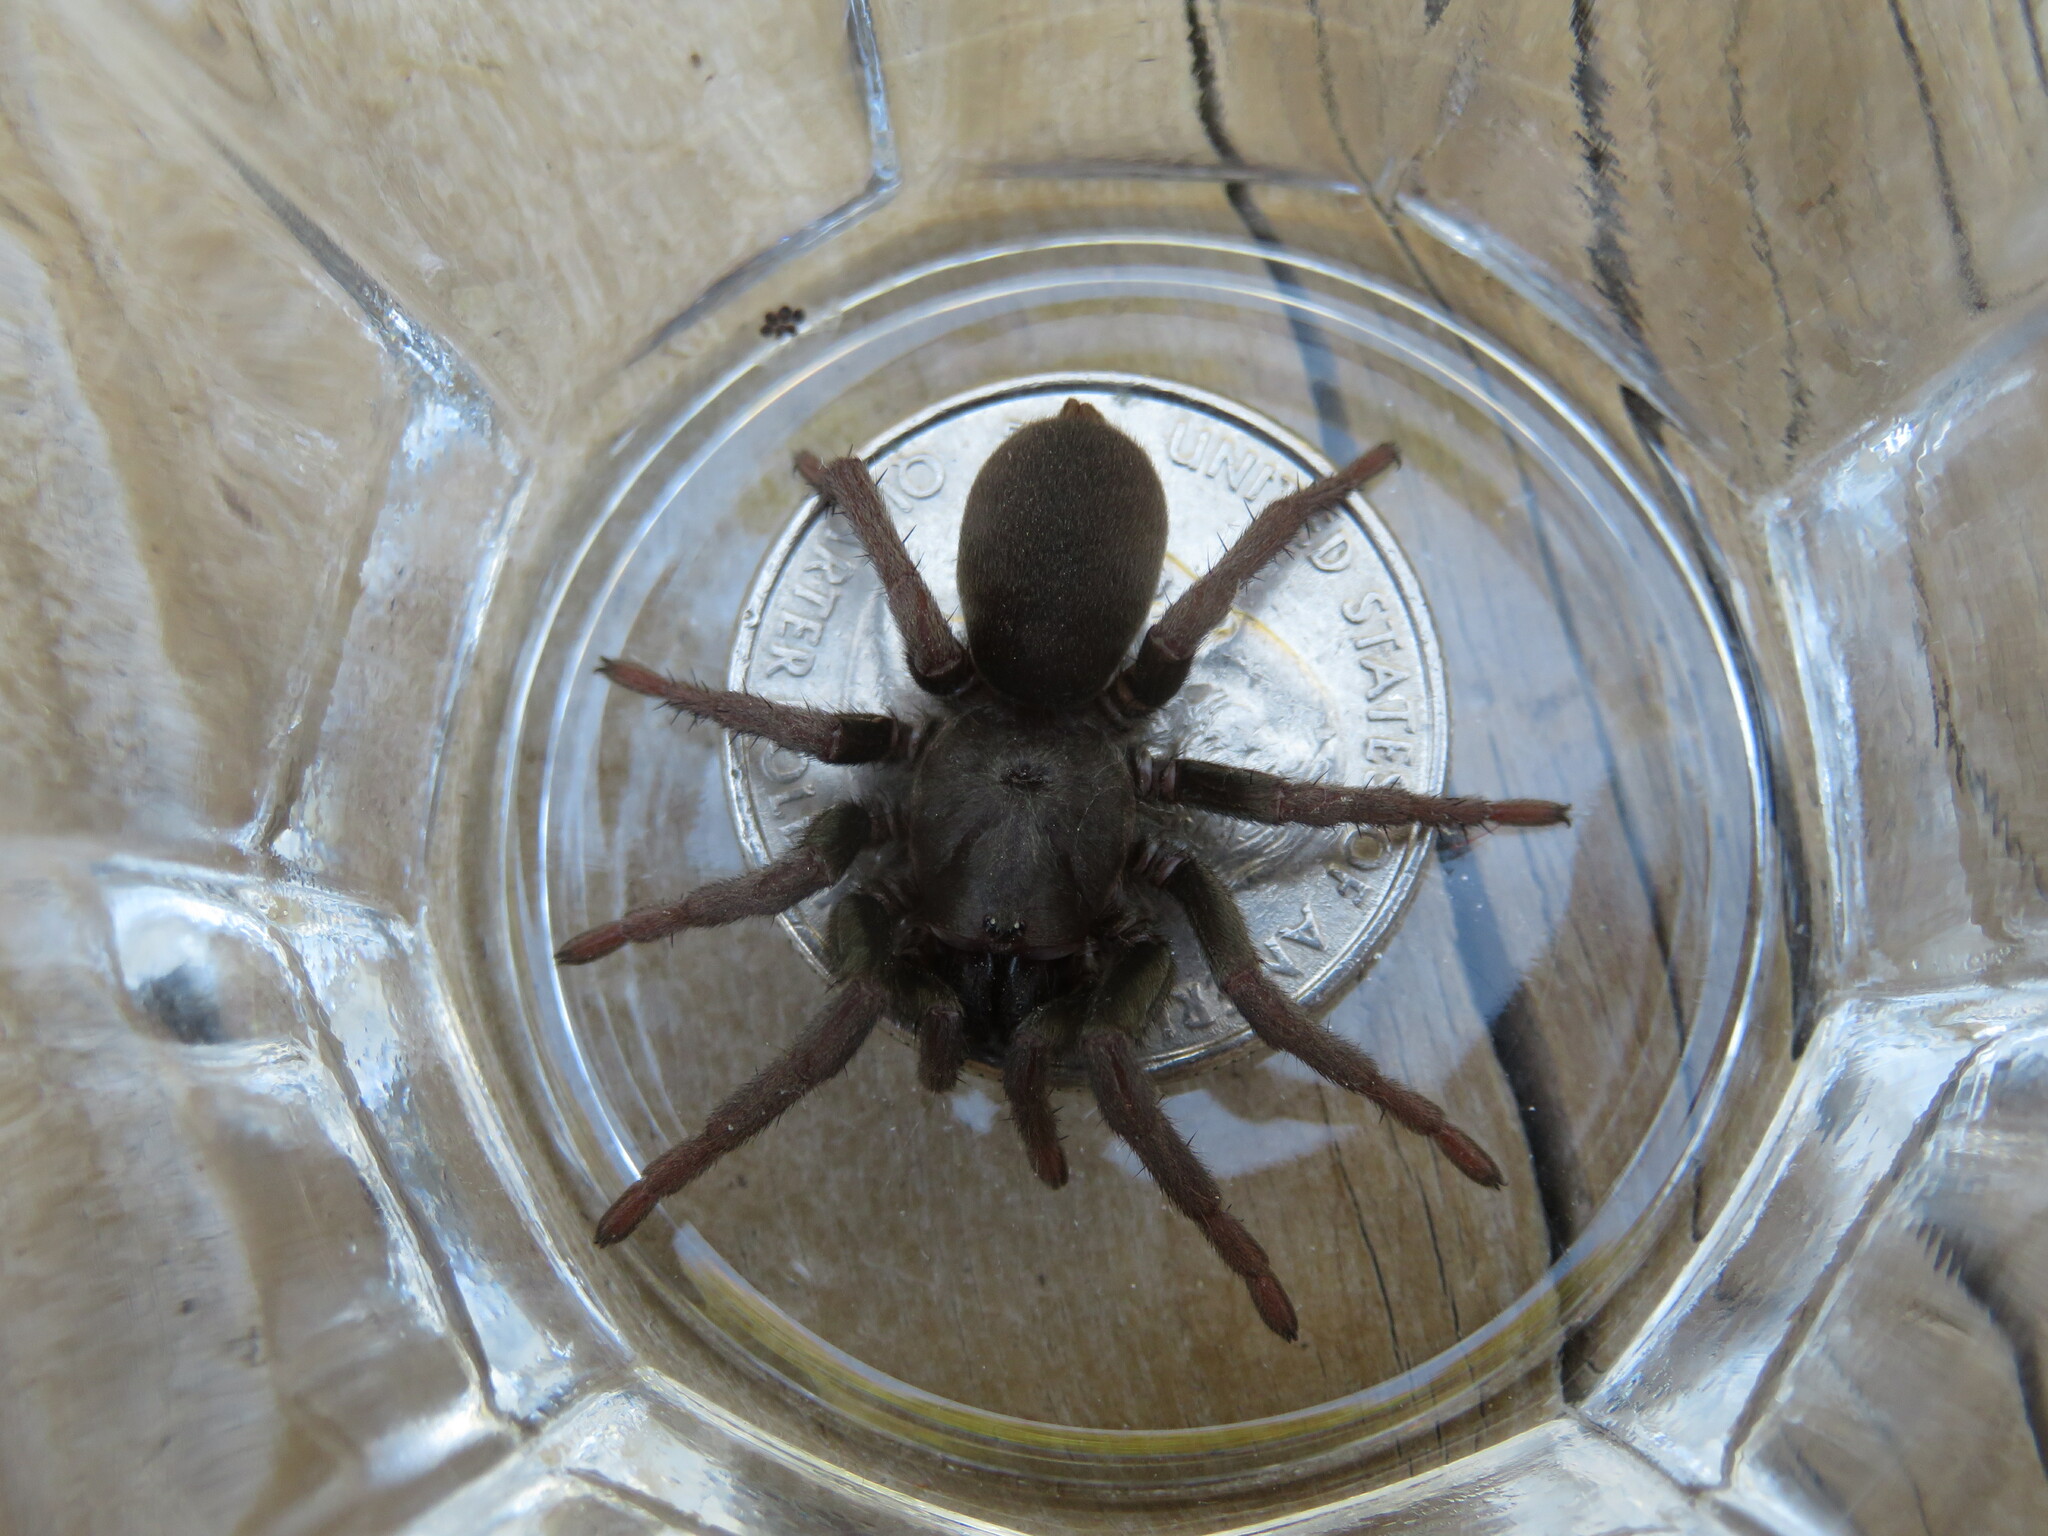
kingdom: Animalia
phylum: Arthropoda
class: Arachnida
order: Araneae
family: Nemesiidae
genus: Calisoga
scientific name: Calisoga longitarsis
